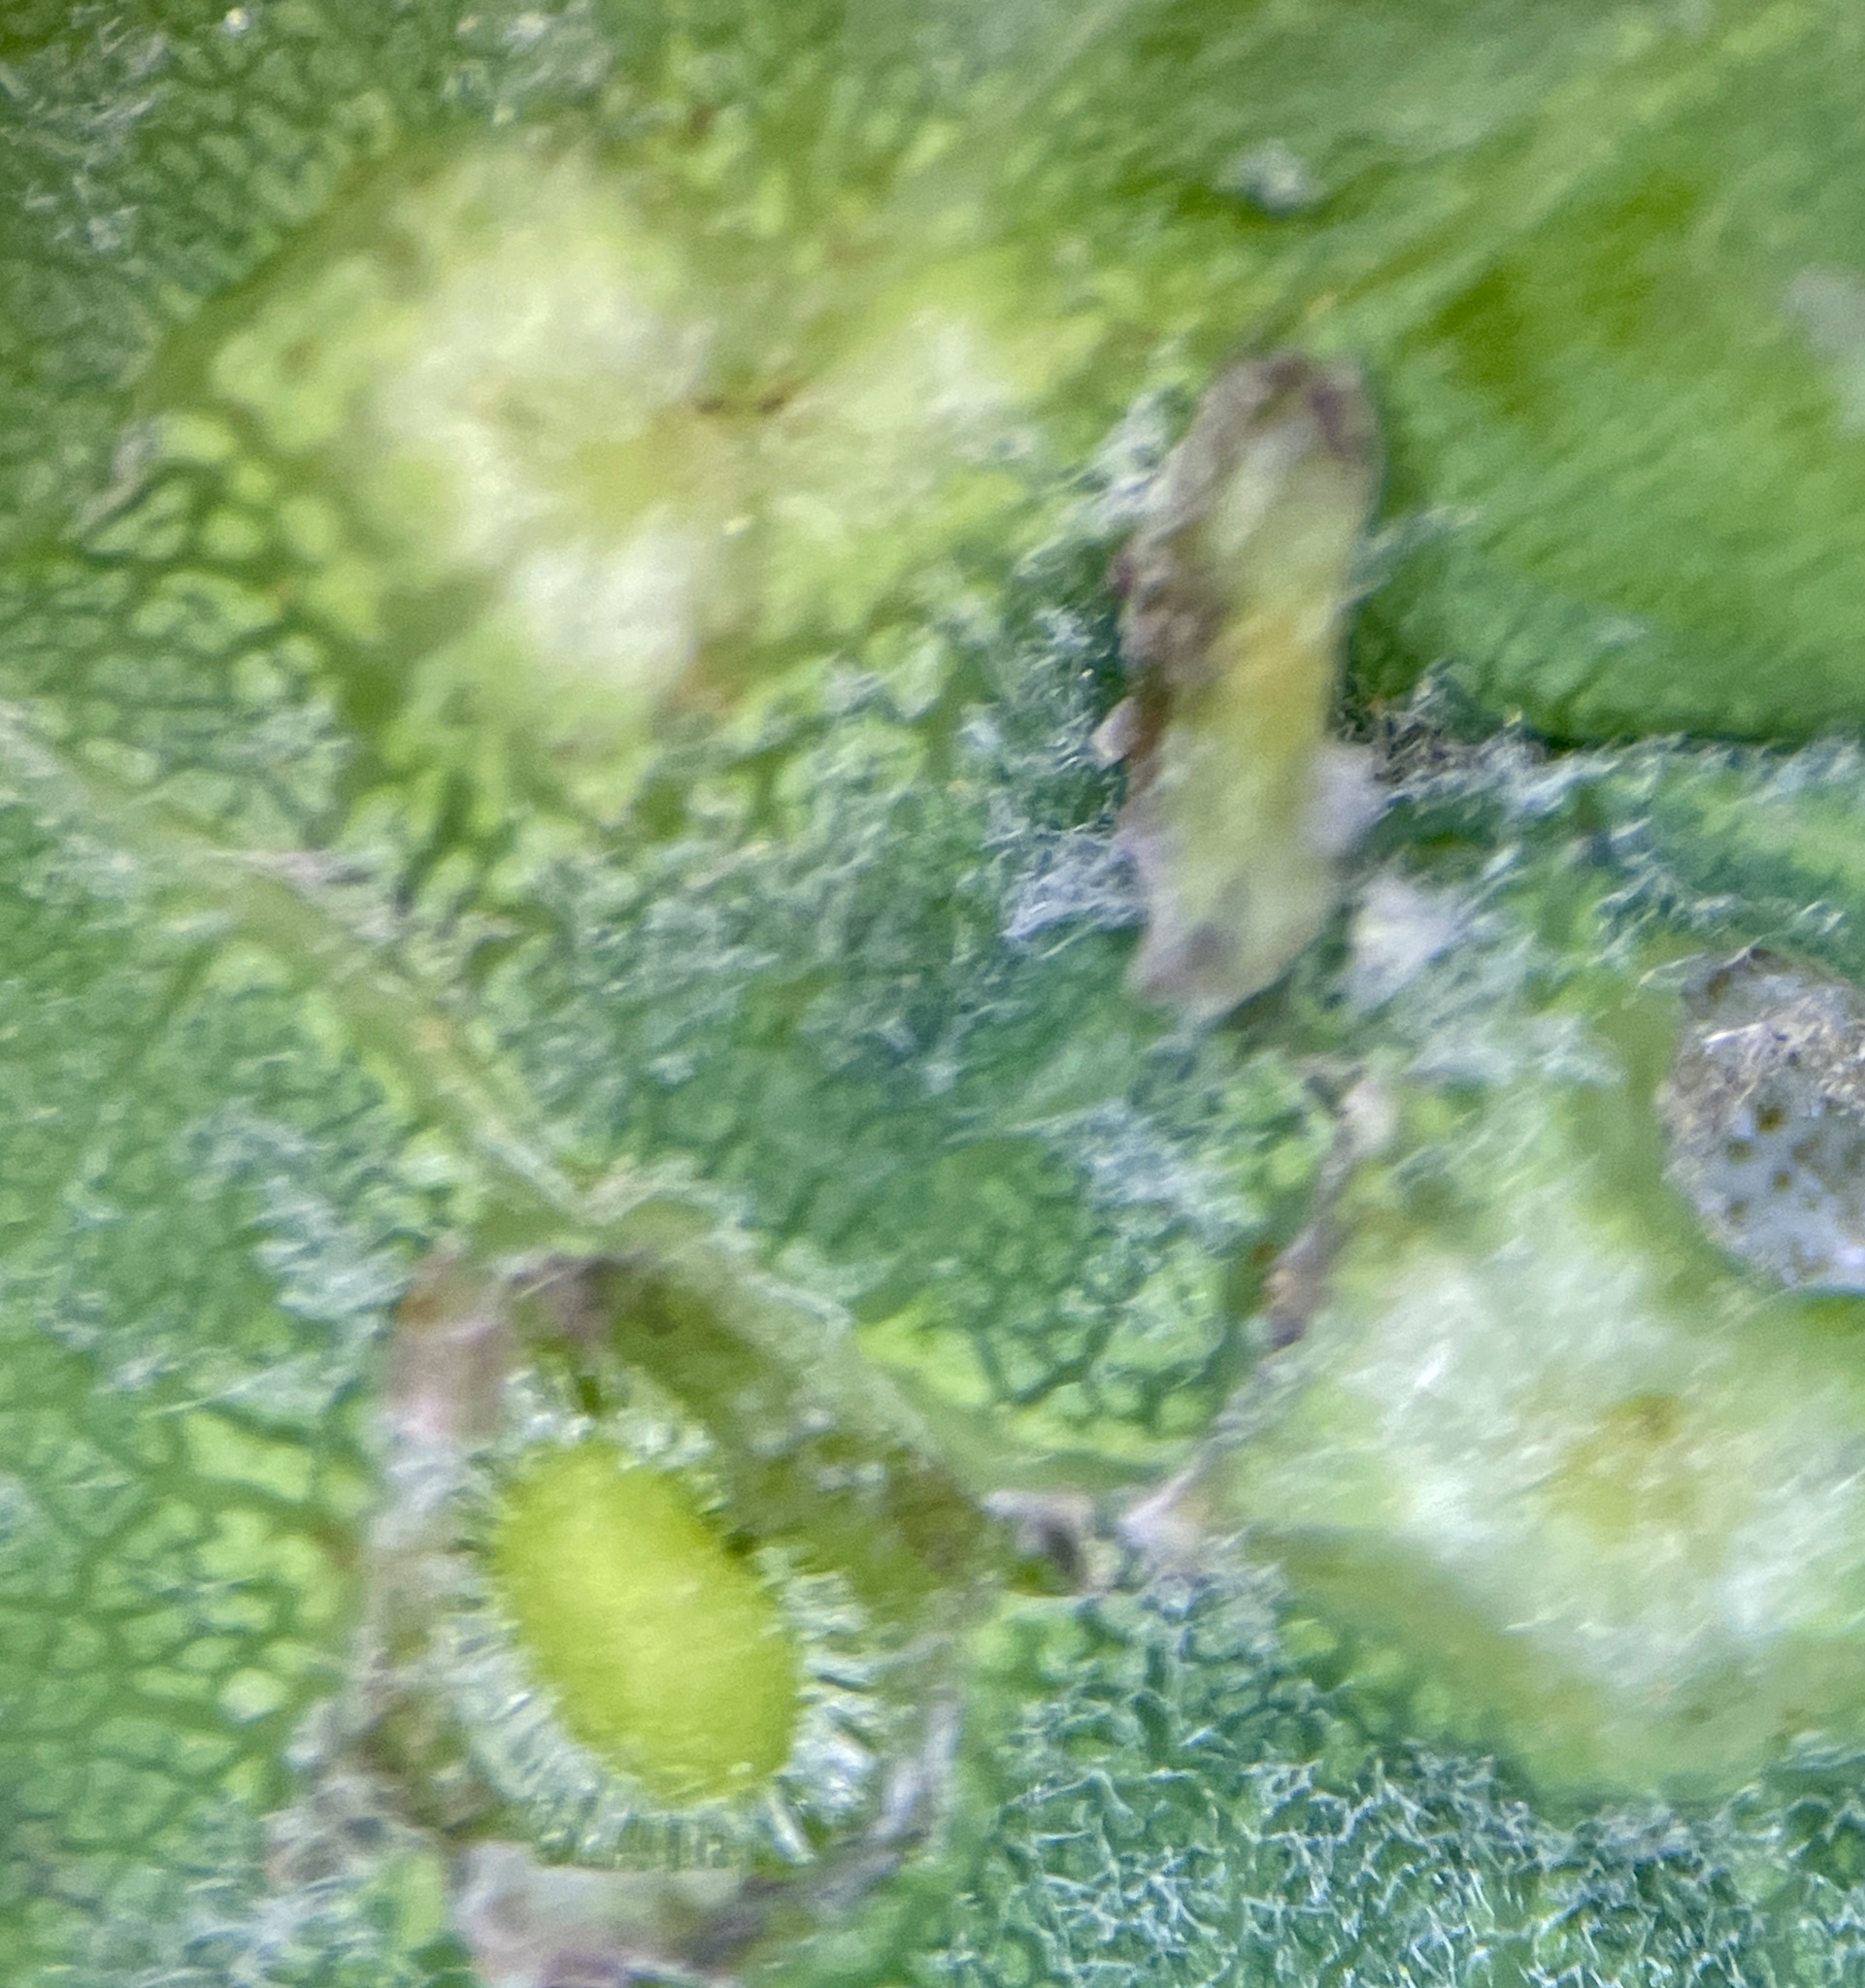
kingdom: Animalia
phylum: Arthropoda
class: Insecta
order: Hymenoptera
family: Cynipidae
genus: Callirhytis
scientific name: Callirhytis
